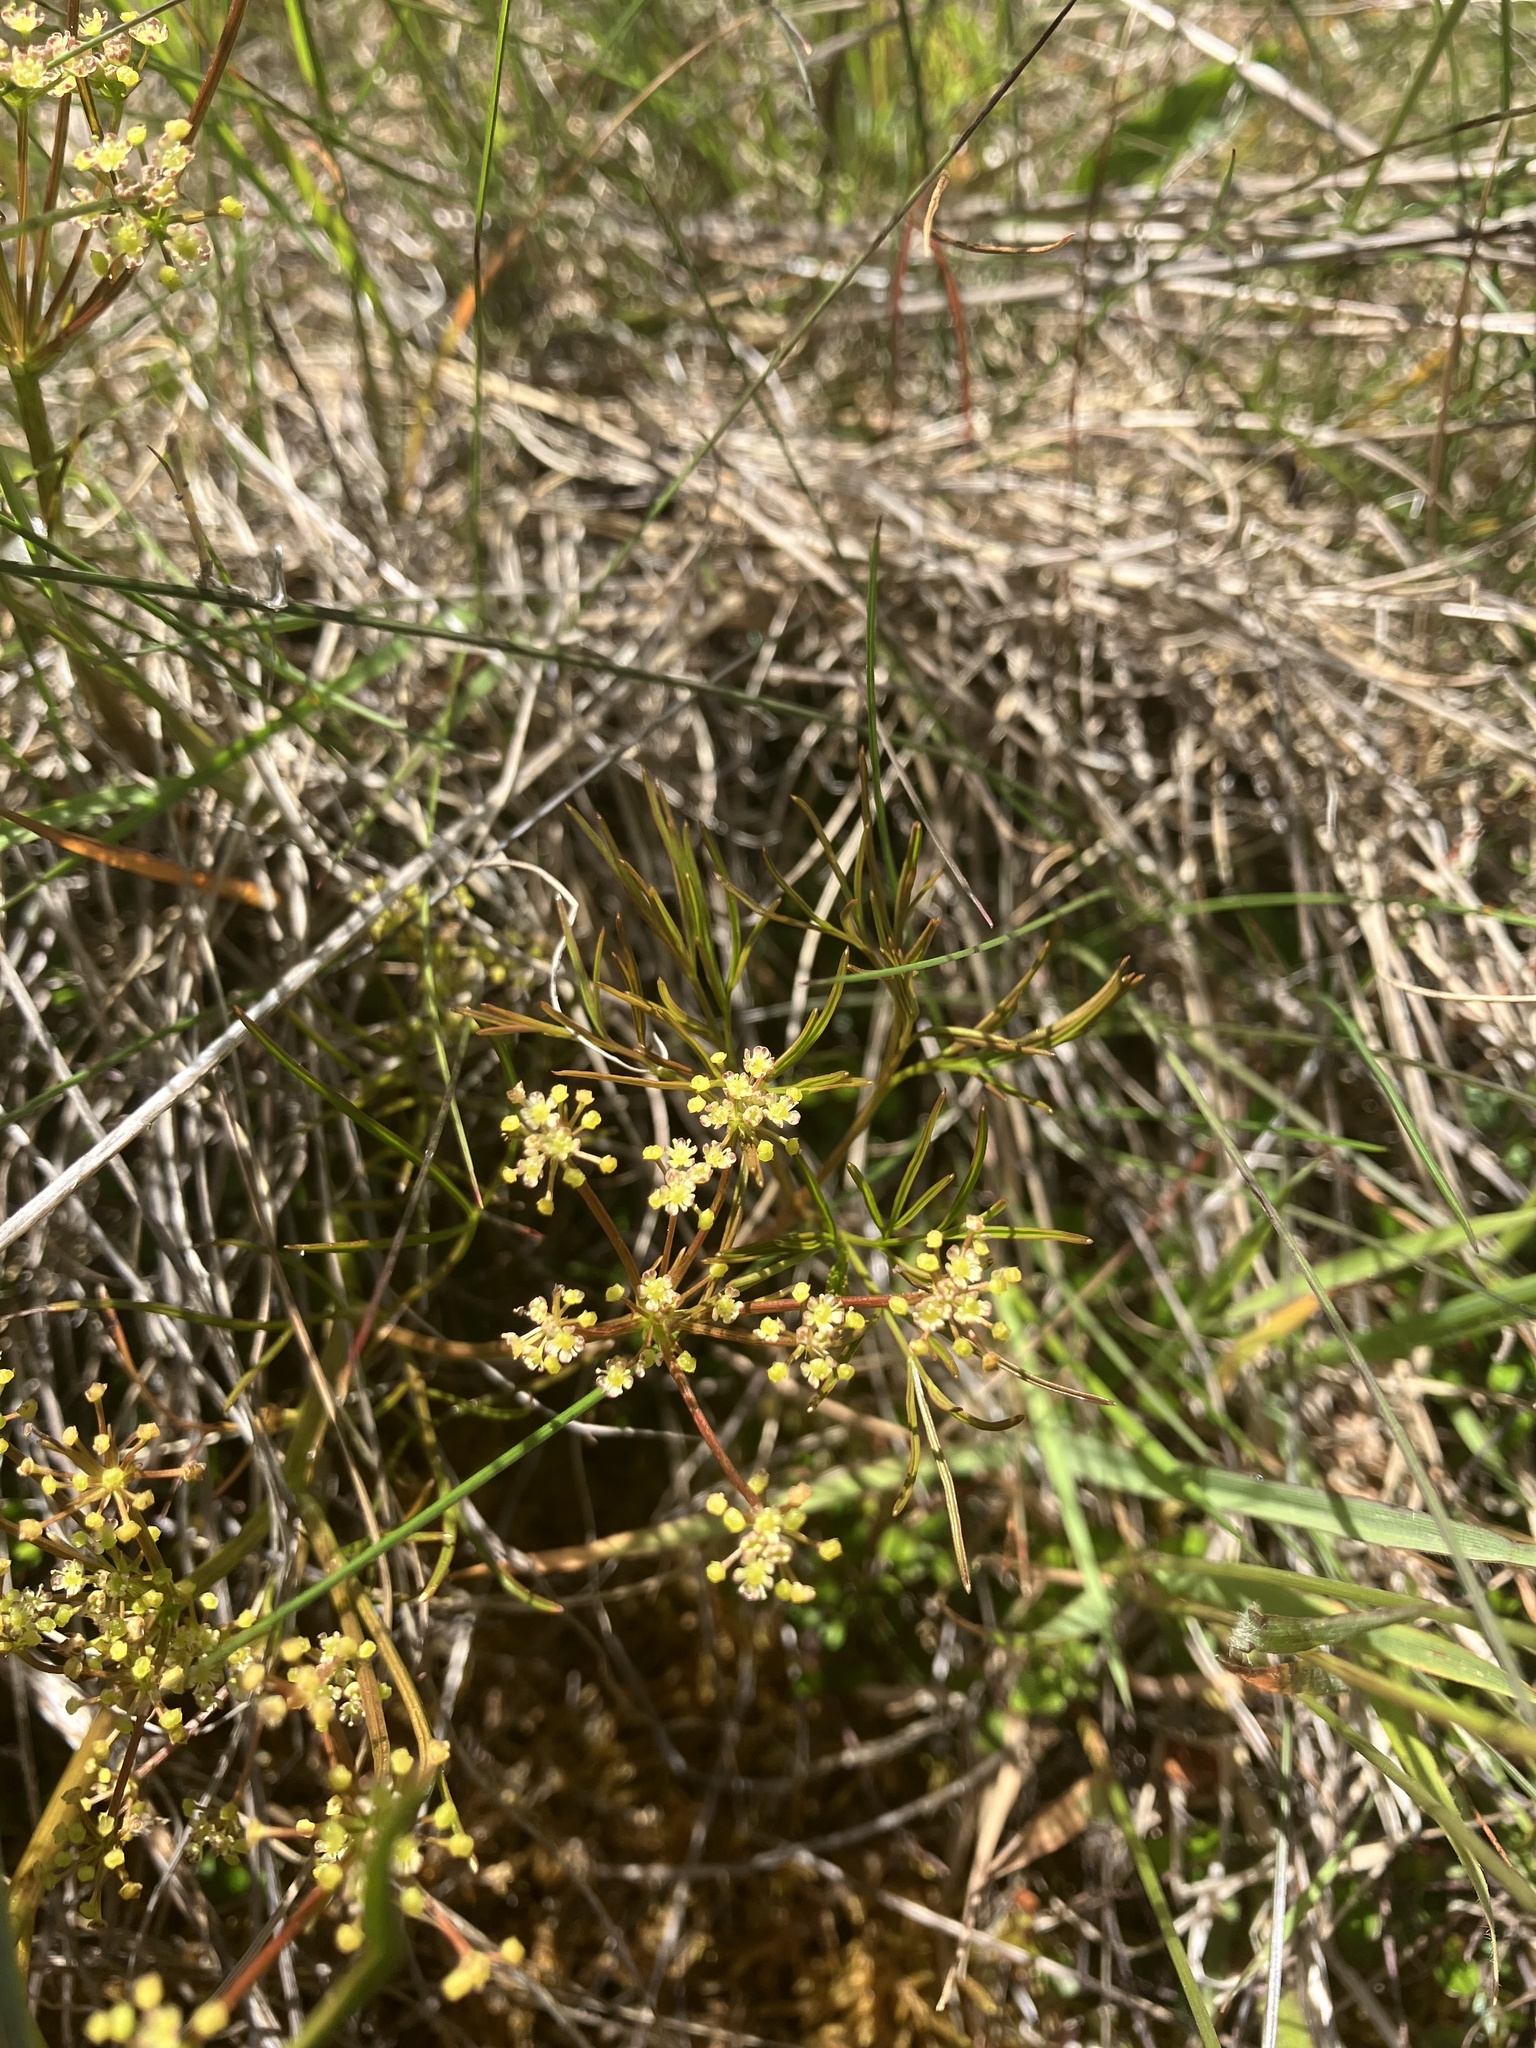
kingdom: Plantae
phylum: Tracheophyta
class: Magnoliopsida
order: Apiales
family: Apiaceae
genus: Anisotome
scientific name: Anisotome filifolia
